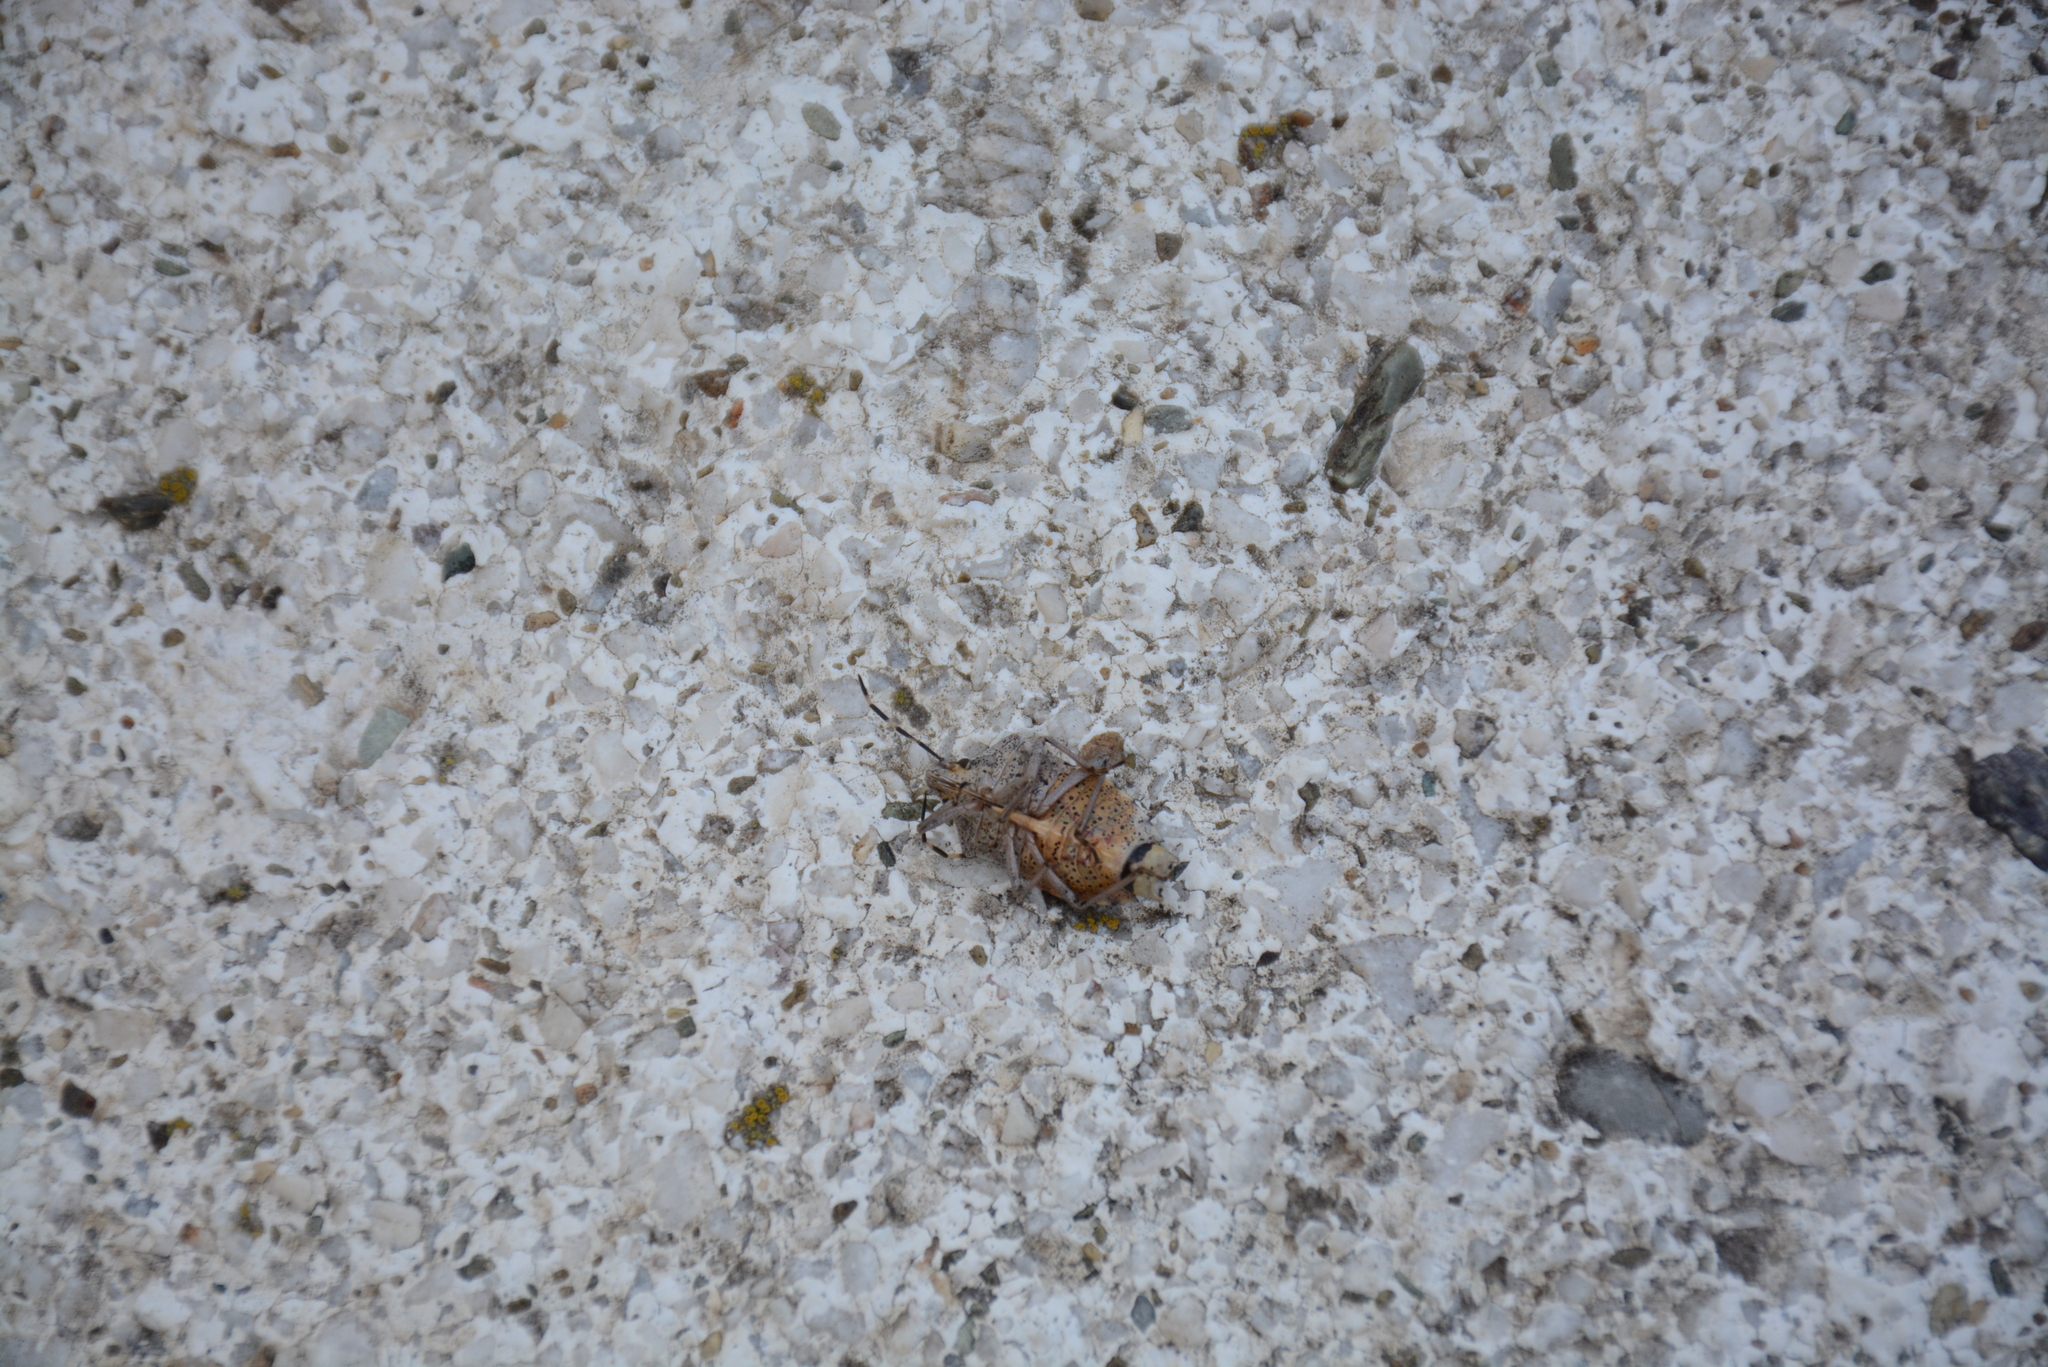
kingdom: Animalia
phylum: Arthropoda
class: Insecta
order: Hemiptera
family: Pentatomidae
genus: Rhaphigaster
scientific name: Rhaphigaster nebulosa
